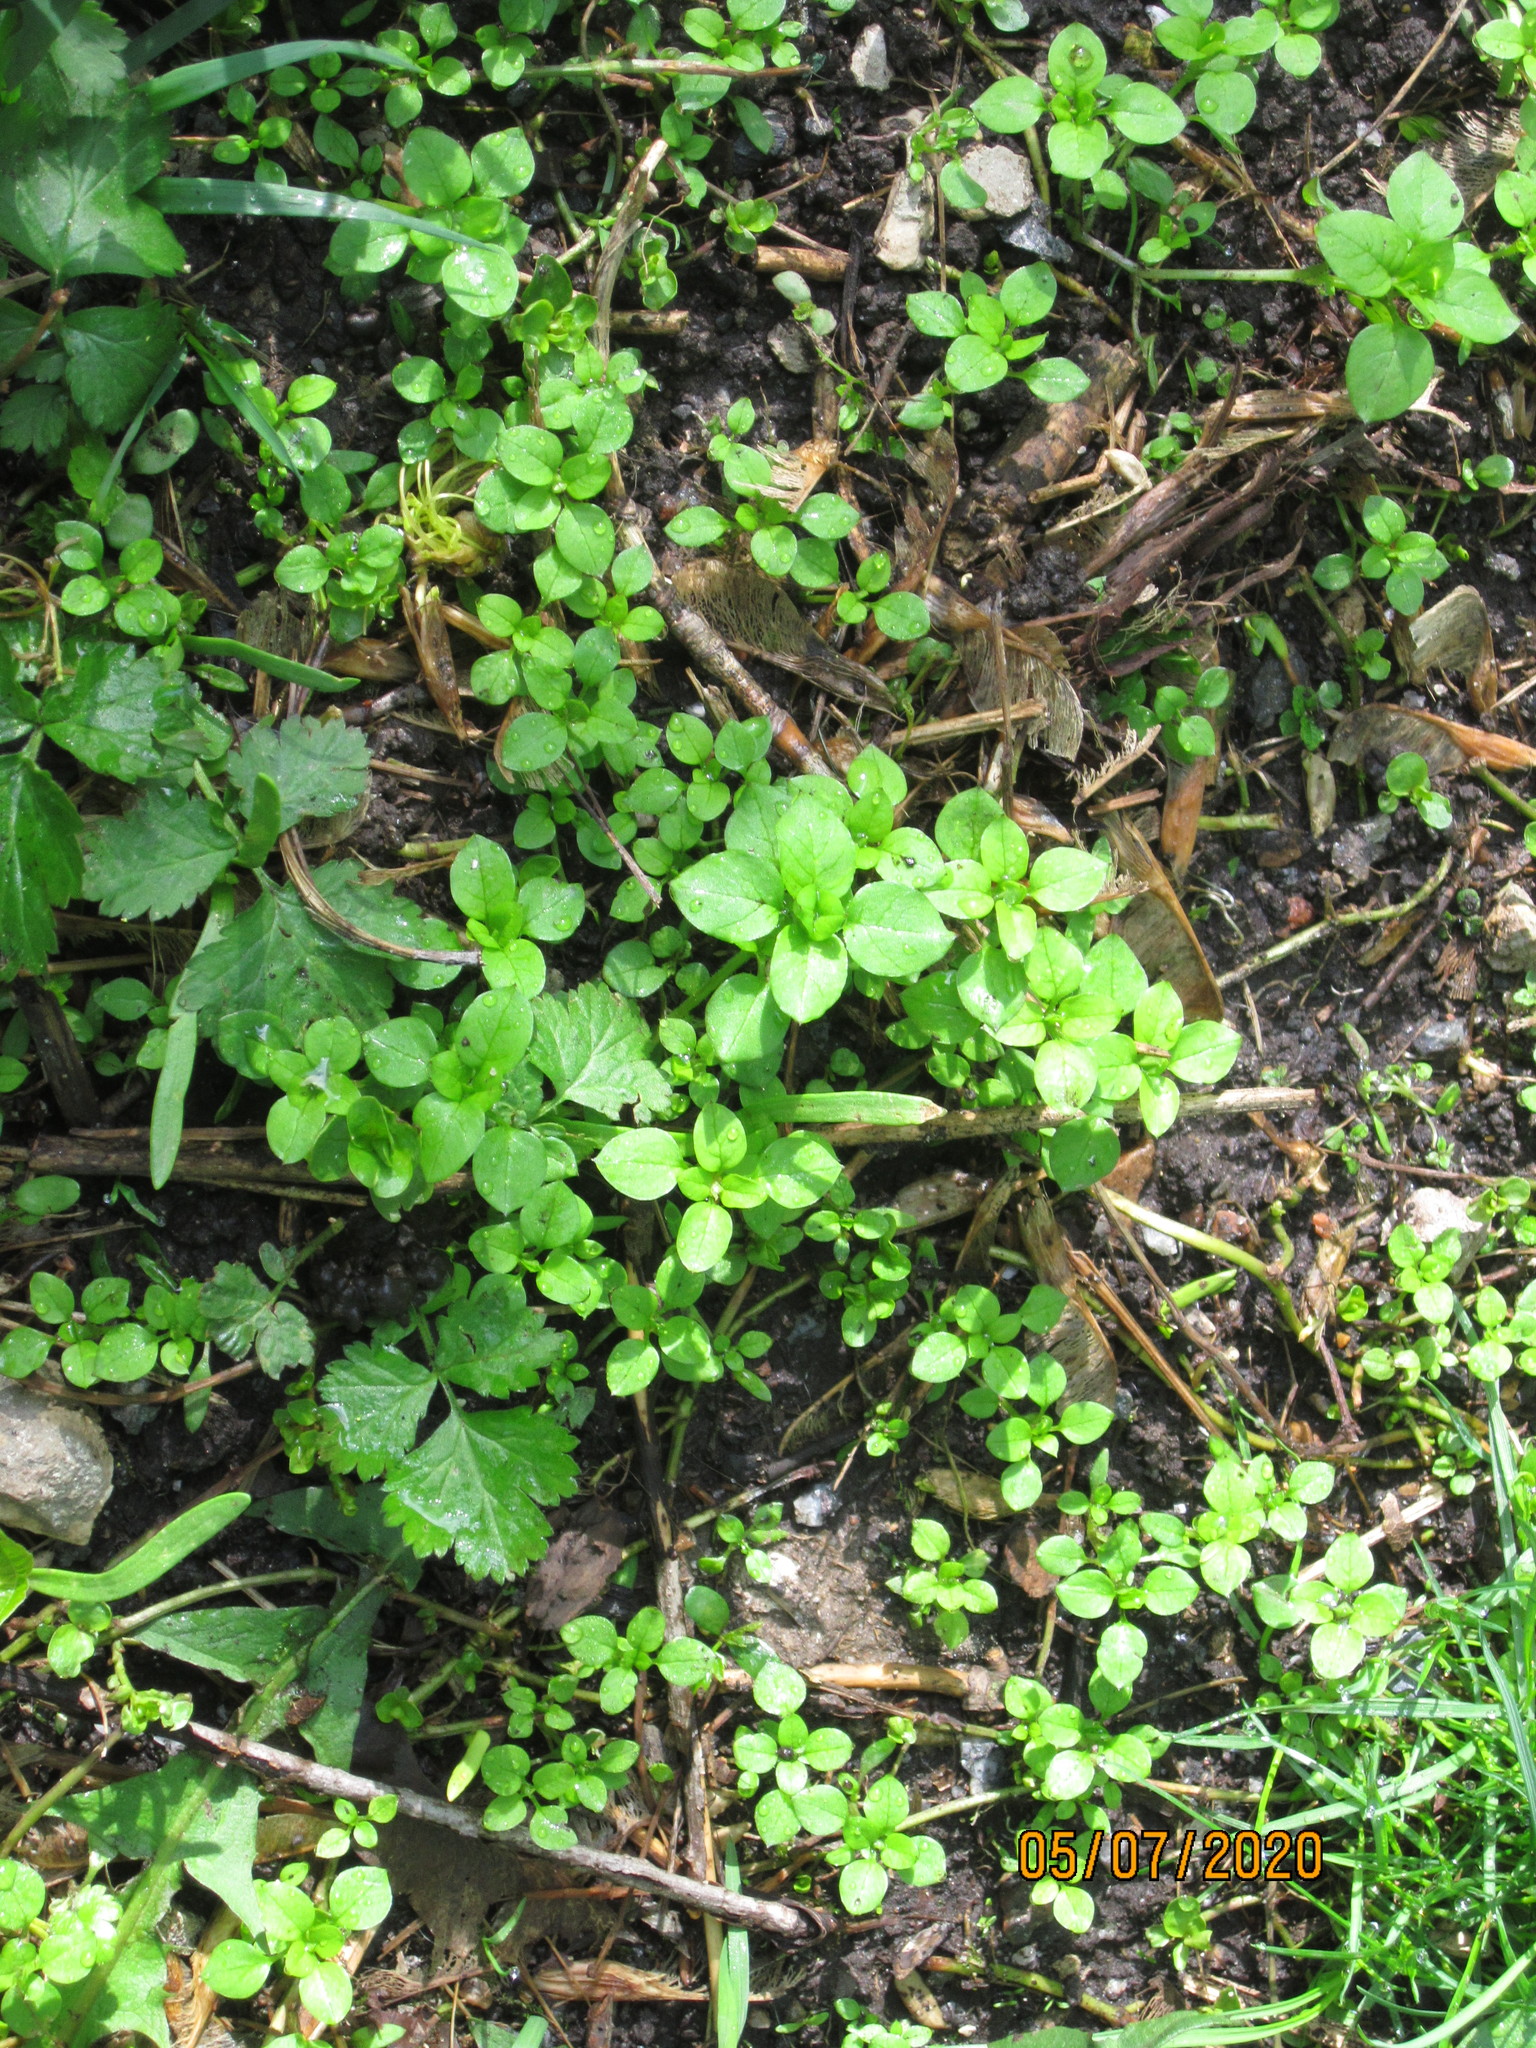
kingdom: Plantae
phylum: Tracheophyta
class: Magnoliopsida
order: Caryophyllales
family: Caryophyllaceae
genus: Stellaria
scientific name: Stellaria media
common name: Common chickweed
